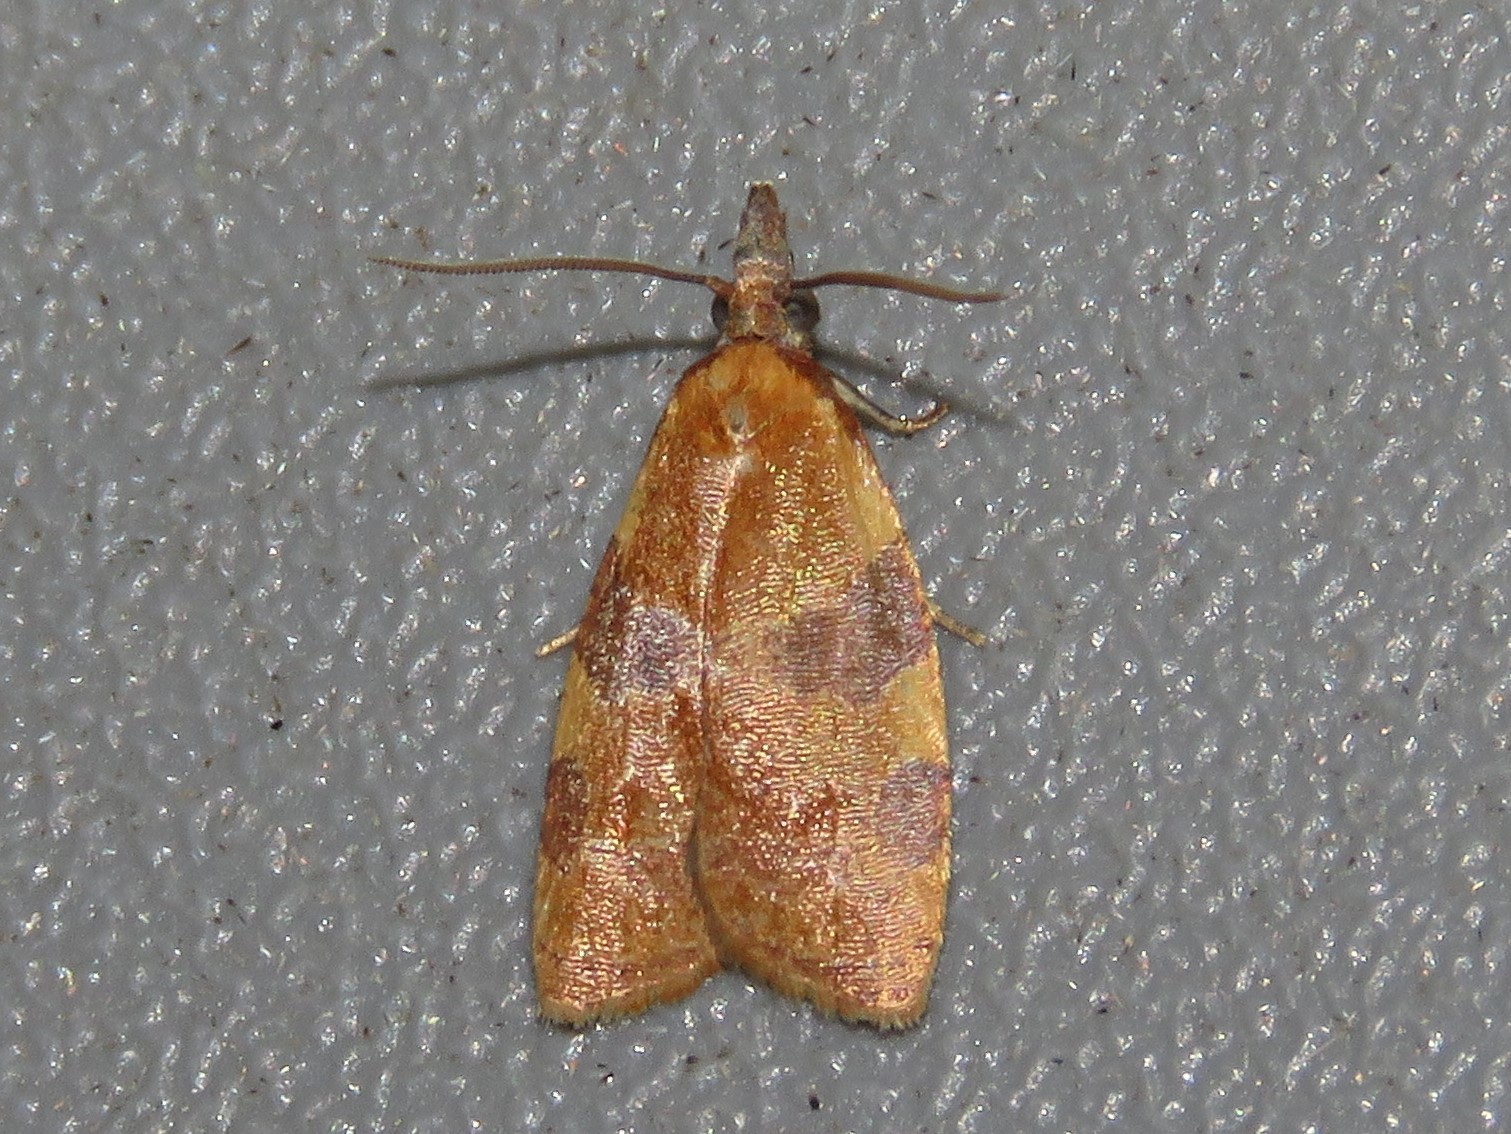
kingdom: Animalia
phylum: Arthropoda
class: Insecta
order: Lepidoptera
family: Tortricidae
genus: Cenopis
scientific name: Cenopis diluticostana
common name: Spring dead-leaf roller moth
